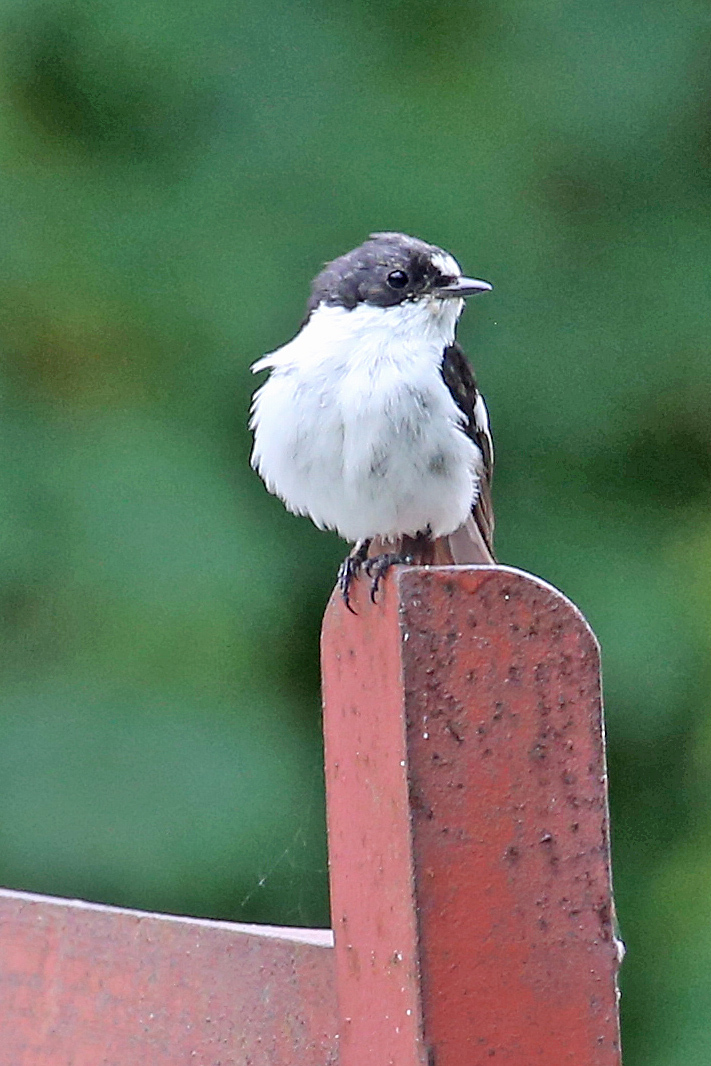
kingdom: Animalia
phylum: Chordata
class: Aves
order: Passeriformes
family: Muscicapidae
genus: Ficedula
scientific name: Ficedula hypoleuca
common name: European pied flycatcher
